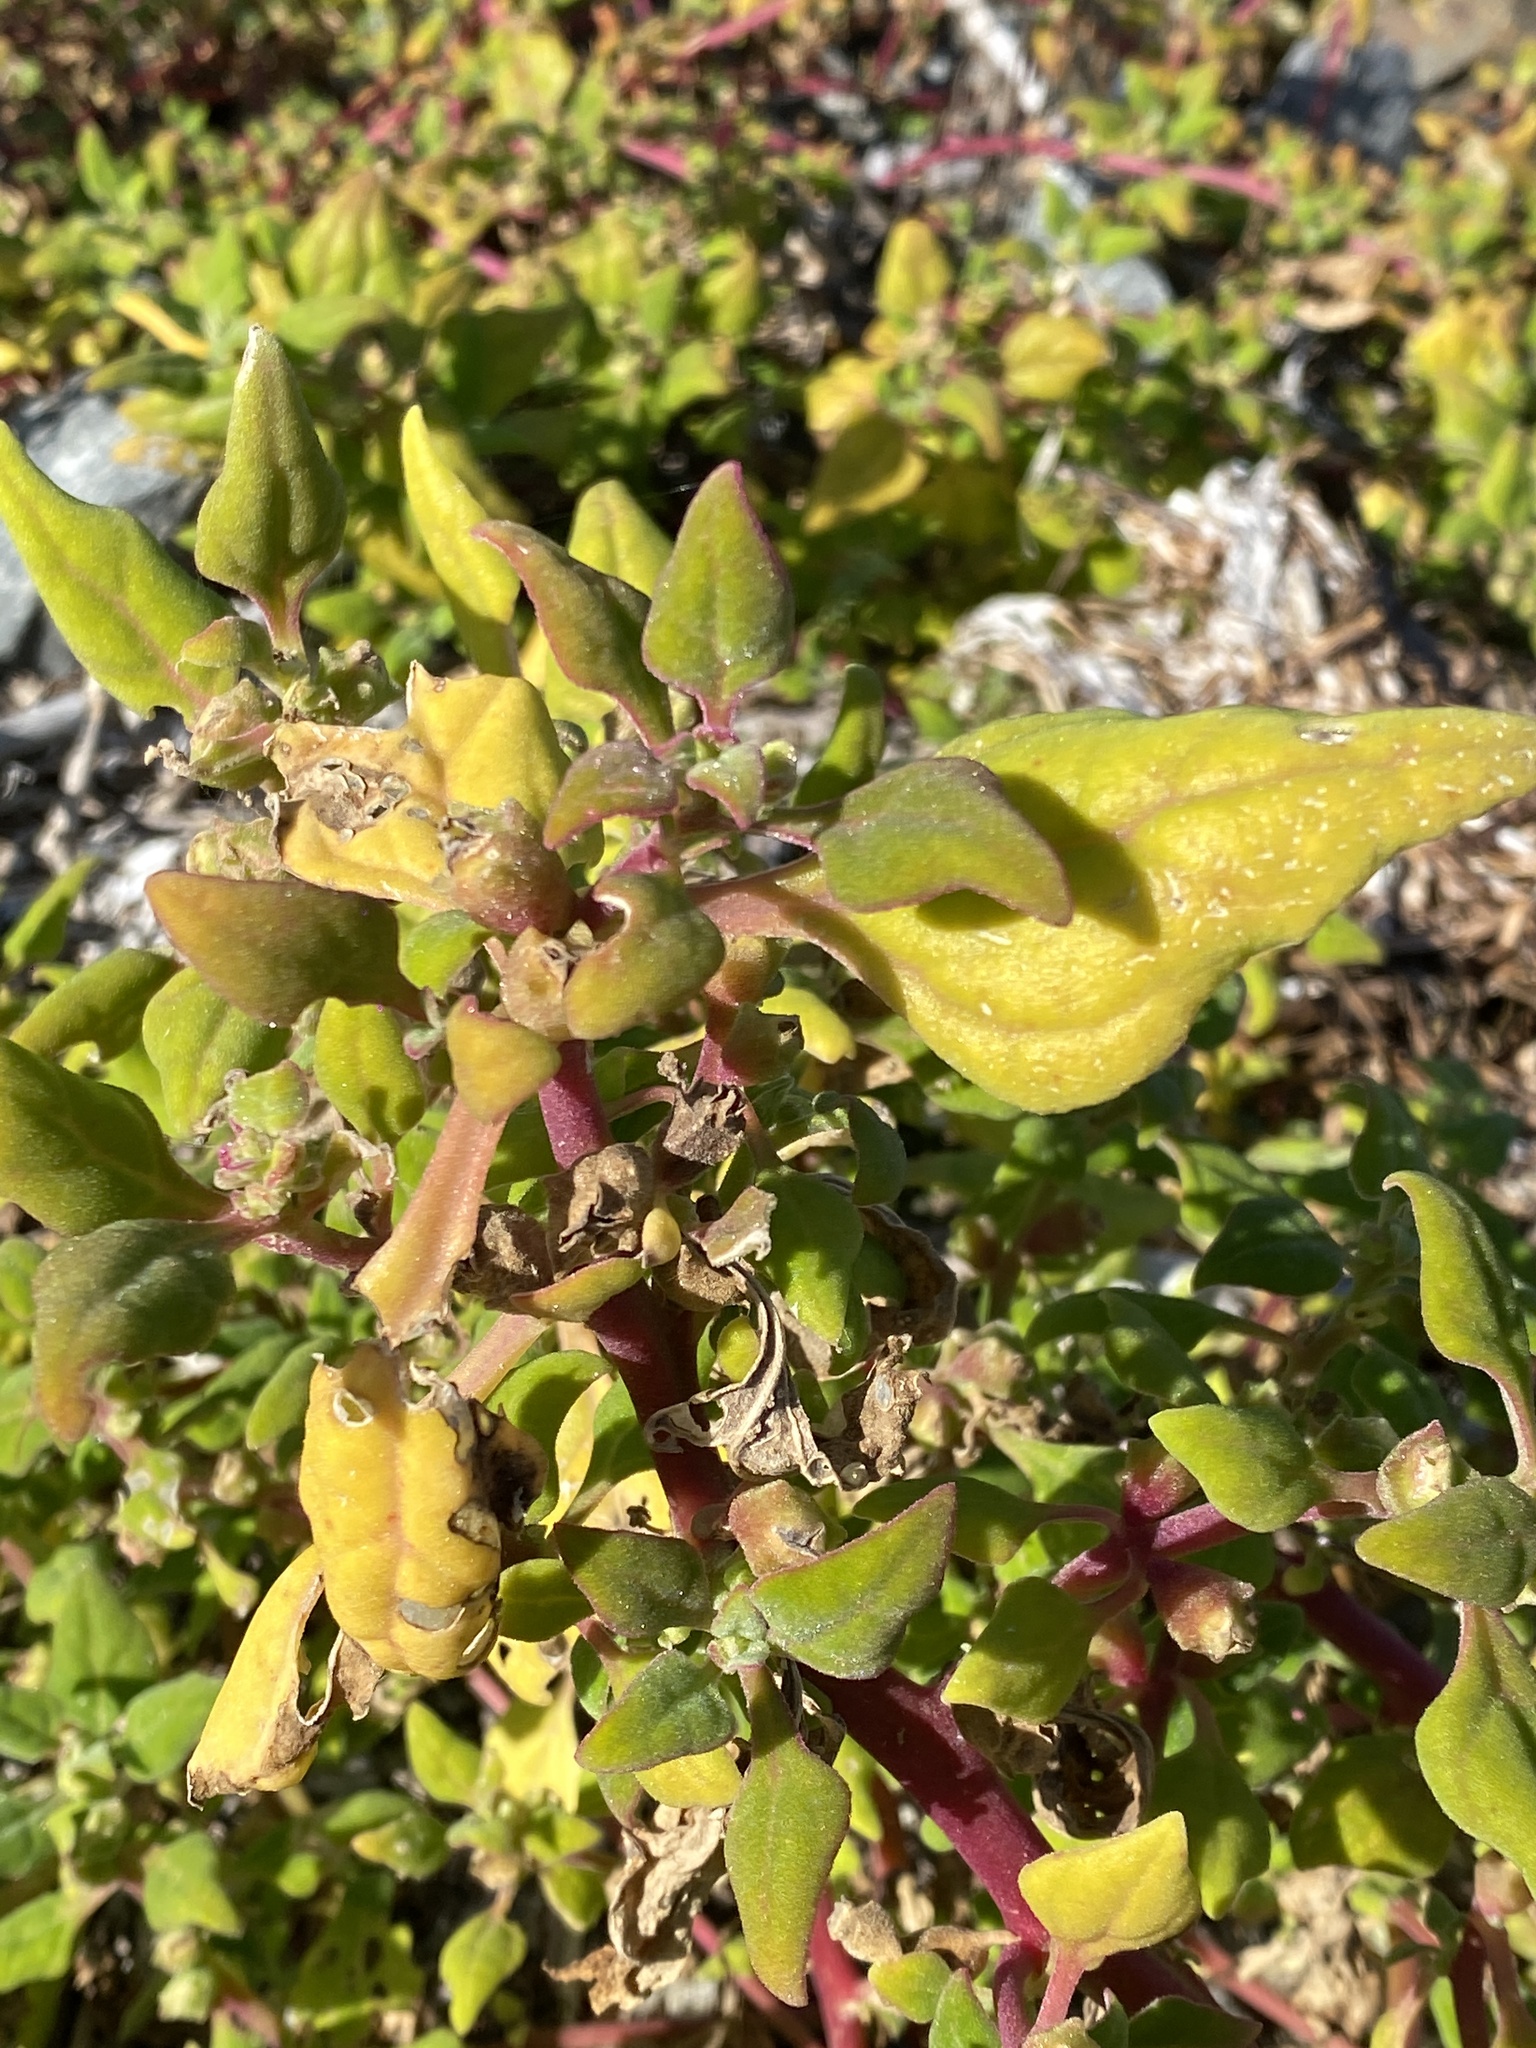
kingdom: Plantae
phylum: Tracheophyta
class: Magnoliopsida
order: Caryophyllales
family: Aizoaceae
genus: Tetragonia
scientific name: Tetragonia tetragonoides
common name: New zealand-spinach
